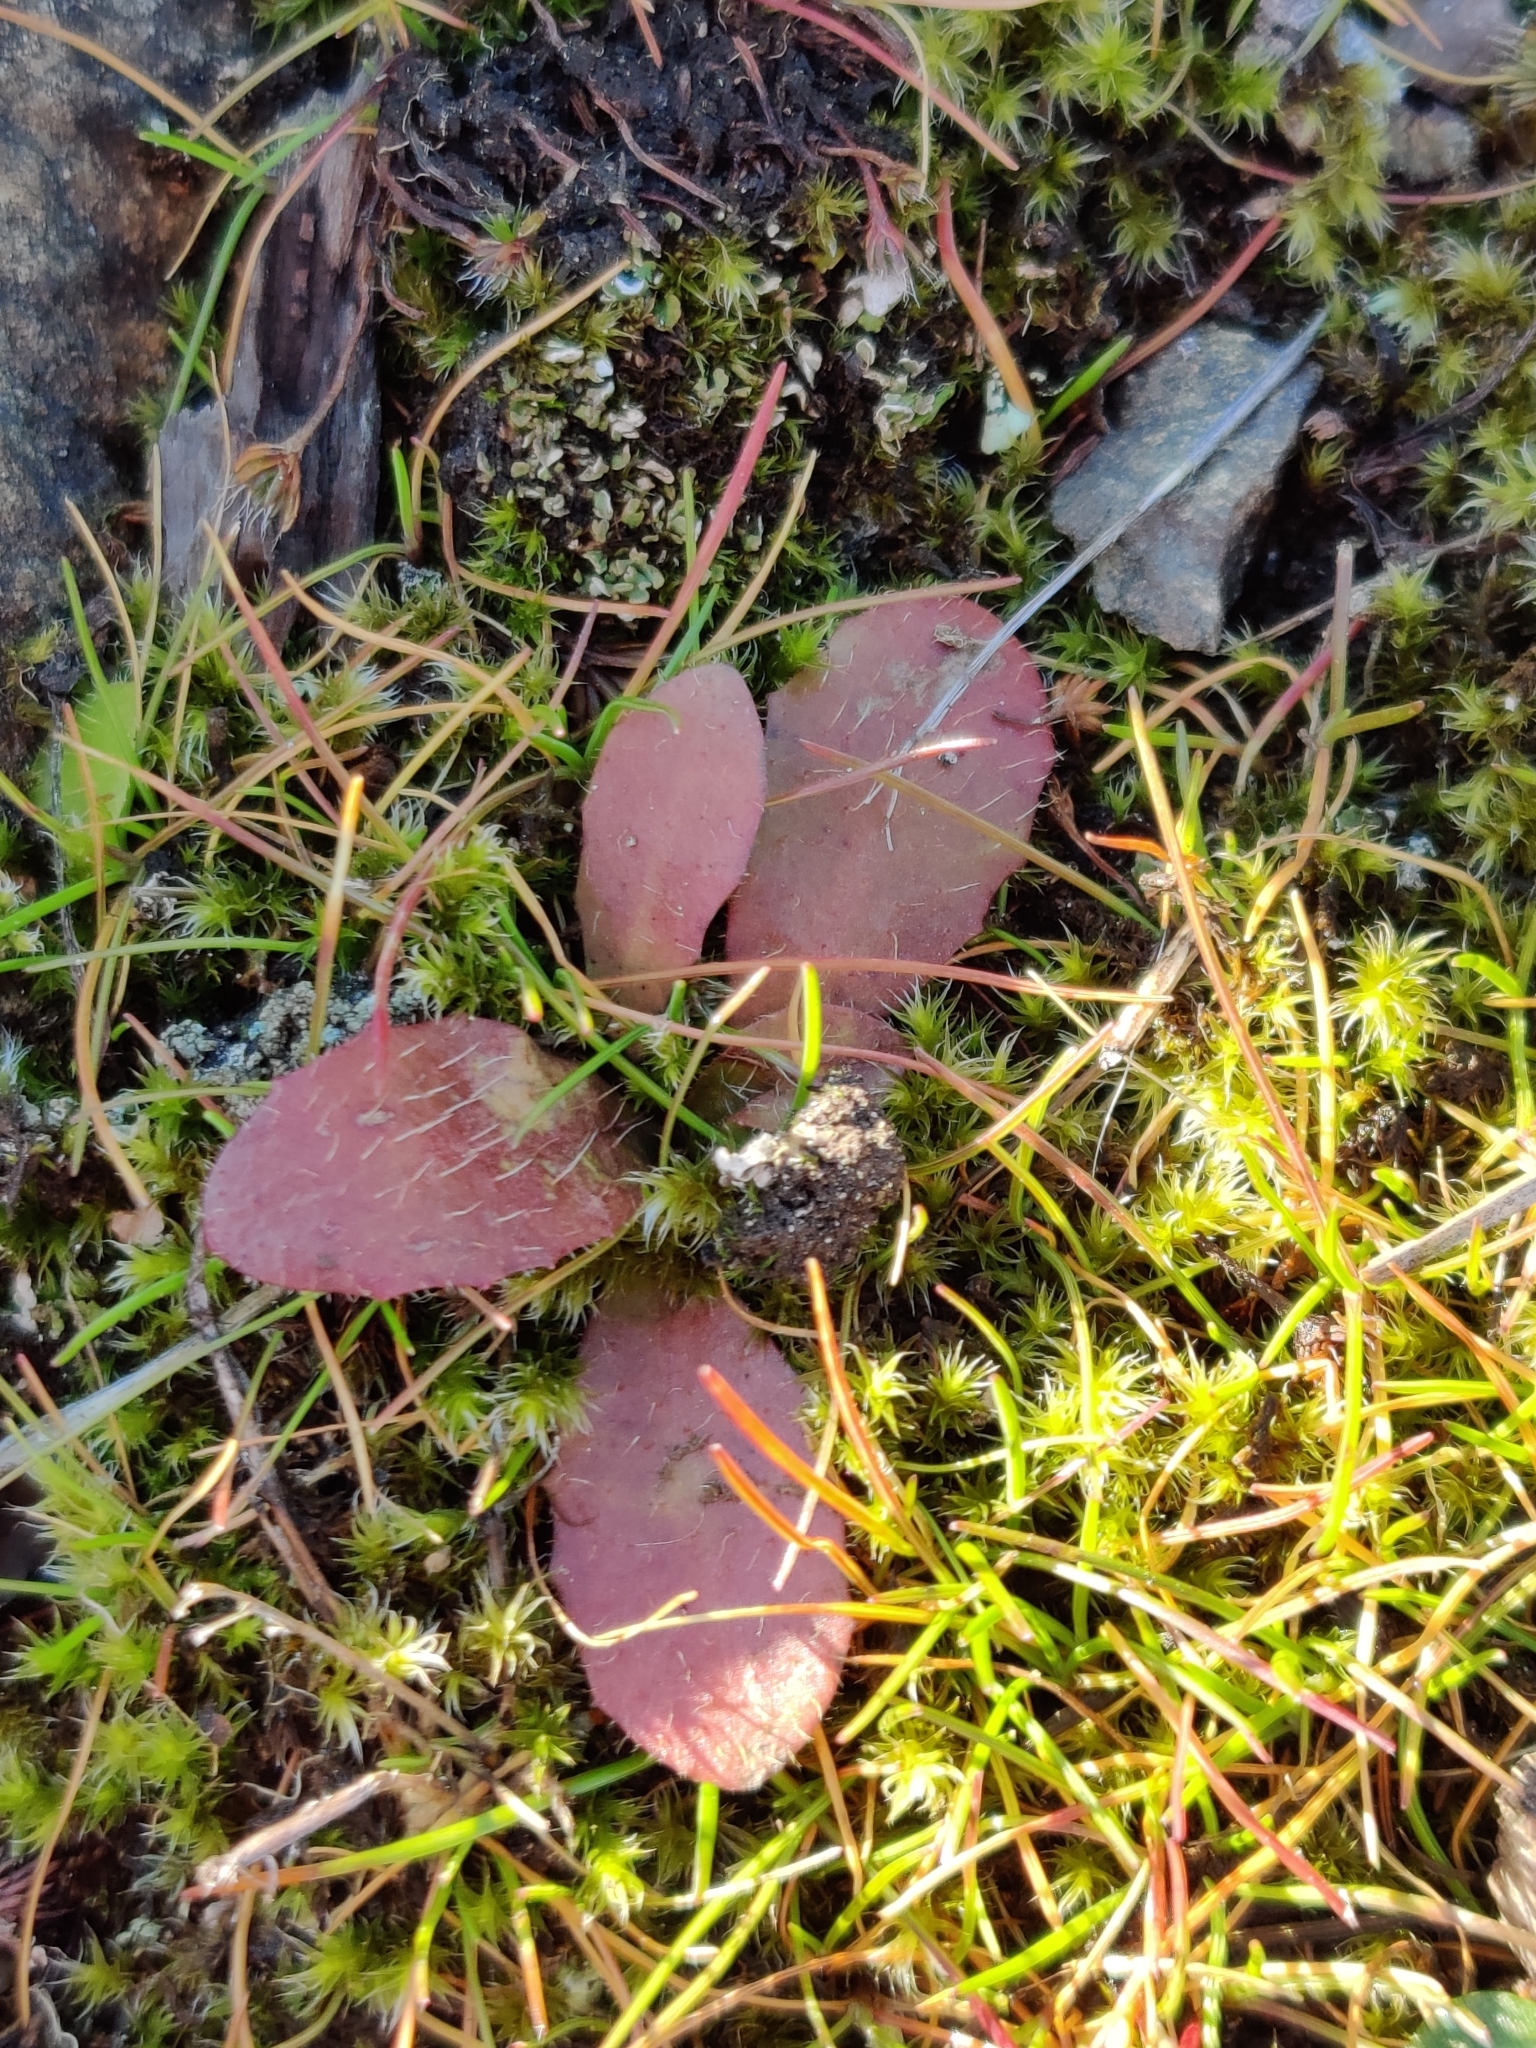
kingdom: Plantae
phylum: Tracheophyta
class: Magnoliopsida
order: Asterales
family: Asteraceae
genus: Hypochaeris
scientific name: Hypochaeris radicata
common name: Flatweed
